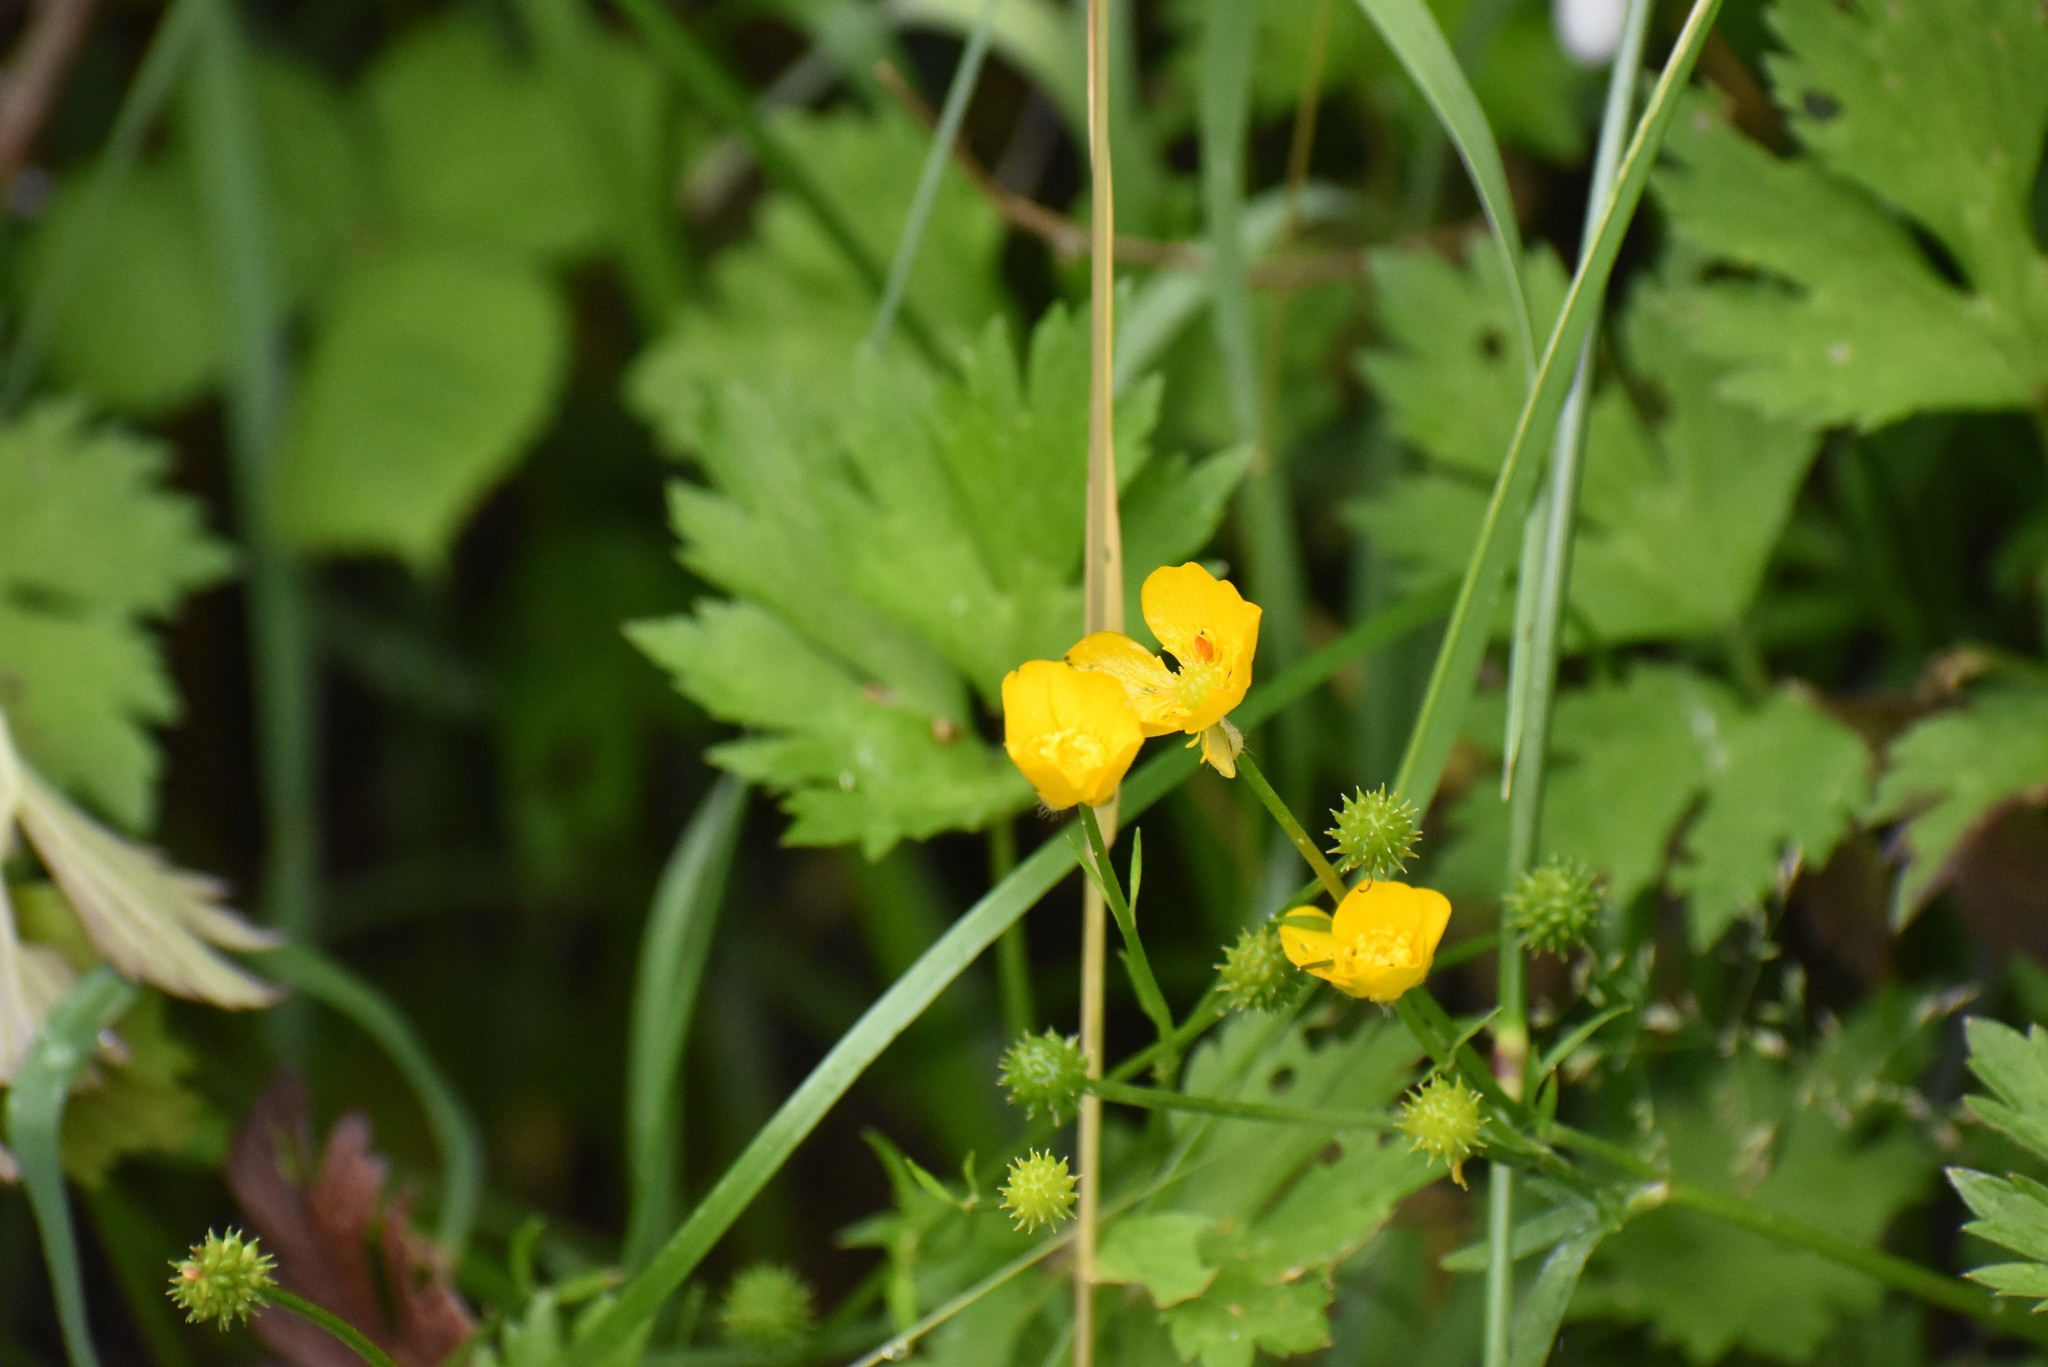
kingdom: Plantae
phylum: Tracheophyta
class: Magnoliopsida
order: Ranunculales
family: Ranunculaceae
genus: Ranunculus
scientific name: Ranunculus repens
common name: Creeping buttercup
